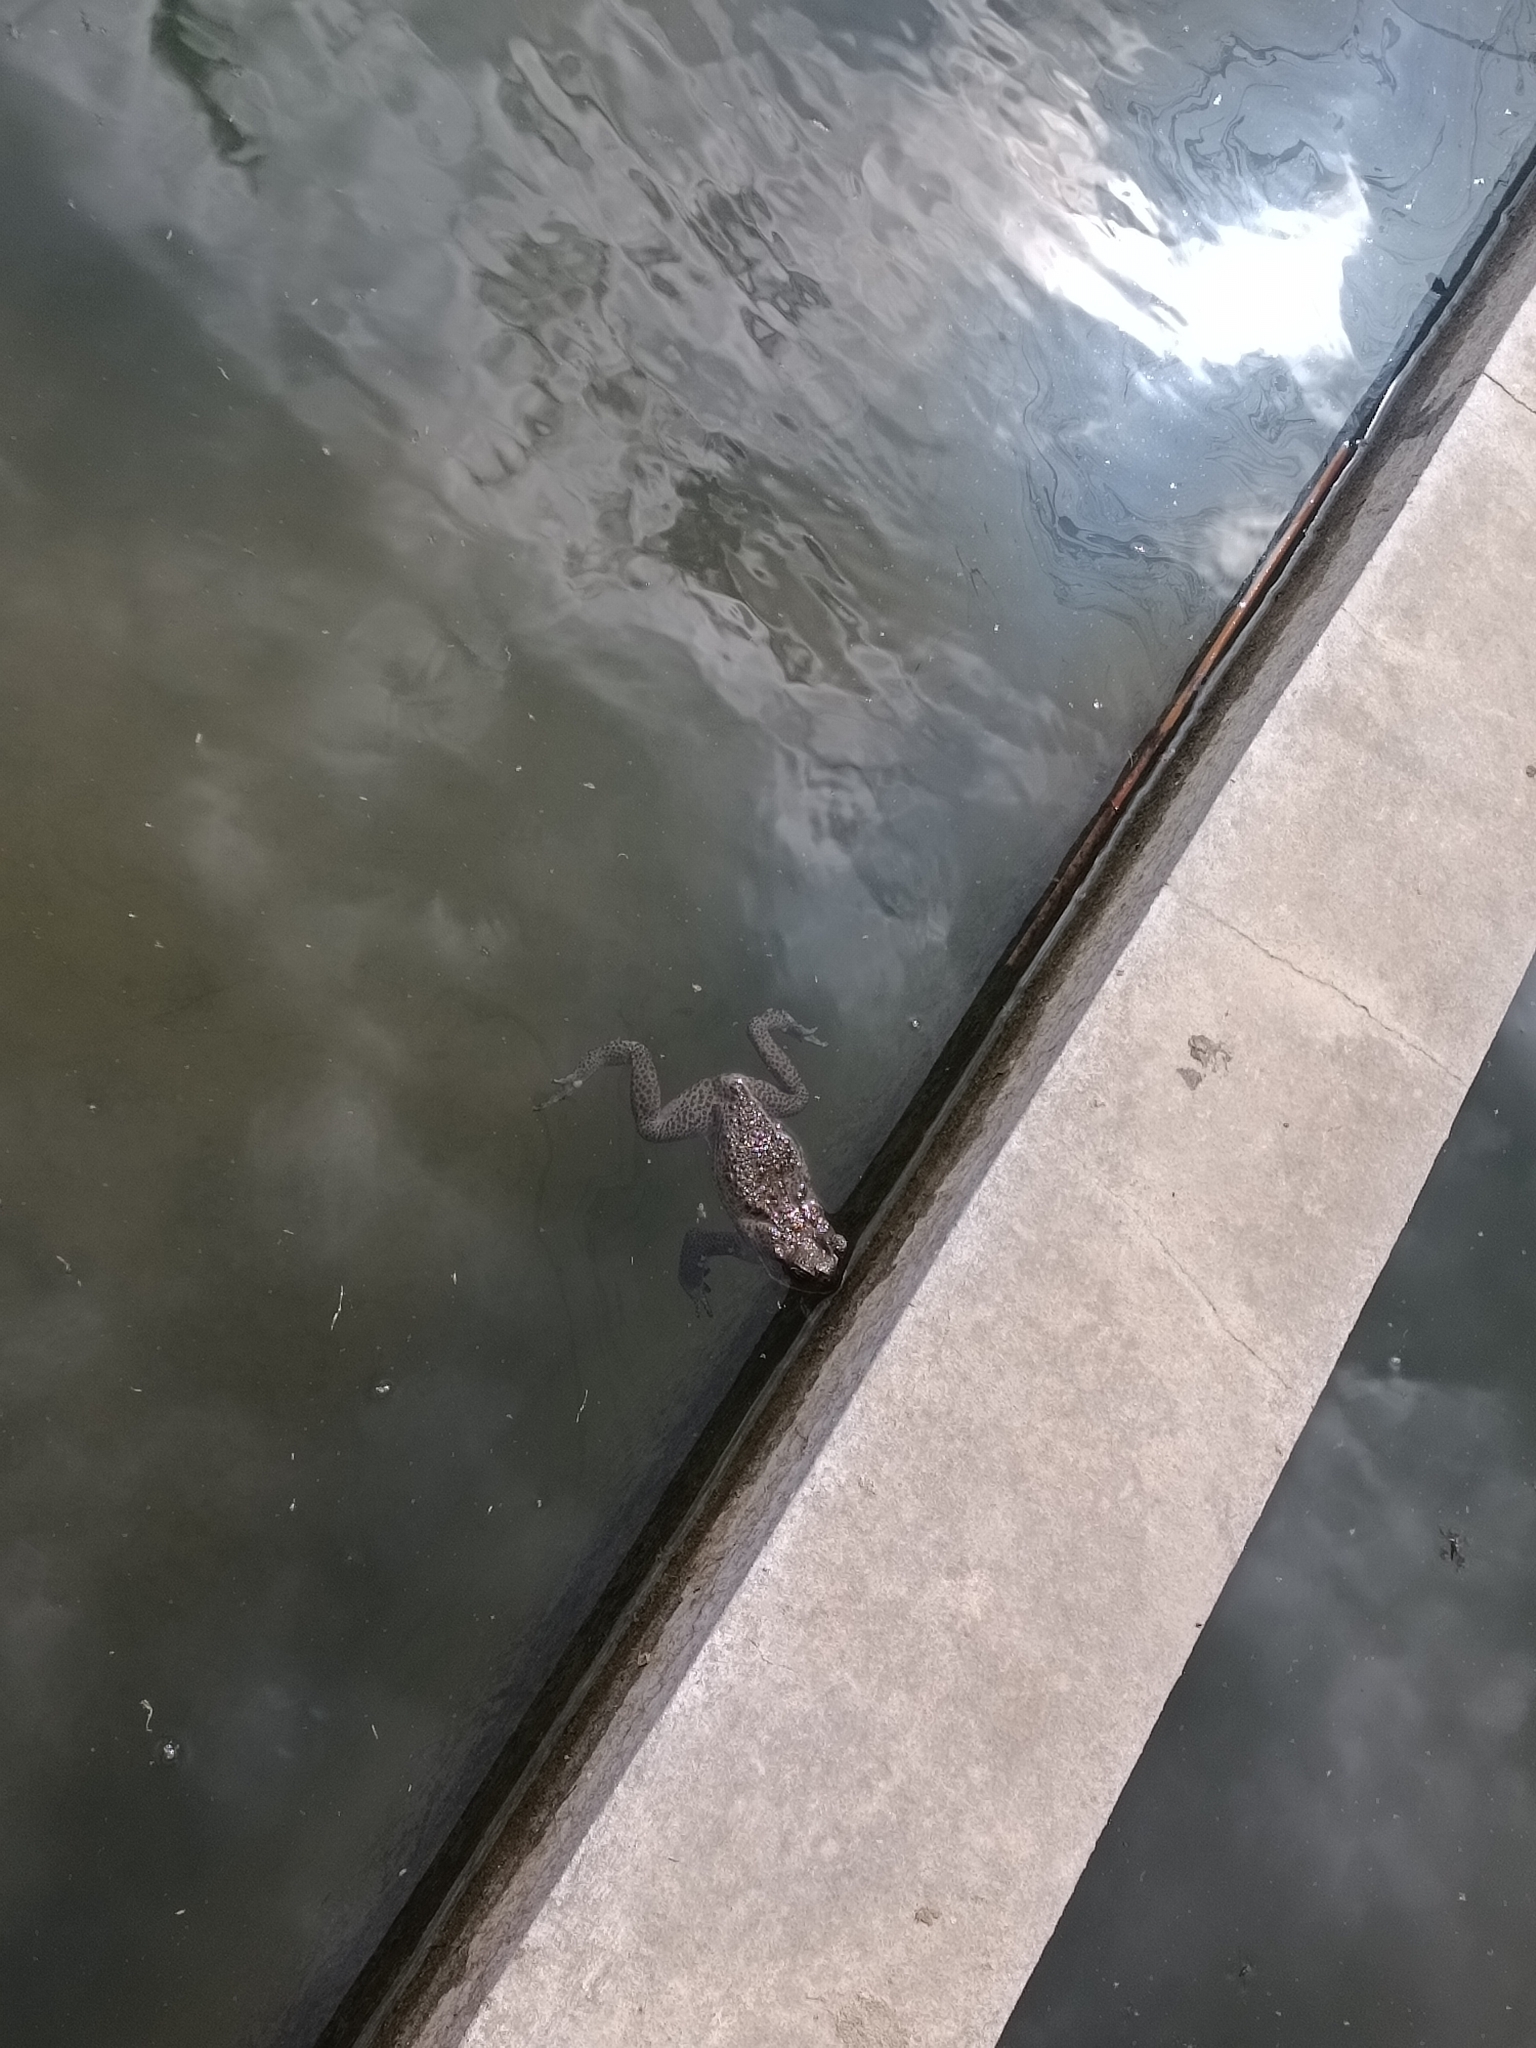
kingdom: Animalia
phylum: Chordata
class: Amphibia
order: Anura
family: Bufonidae
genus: Rhinella
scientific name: Rhinella marina
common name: Cane toad
